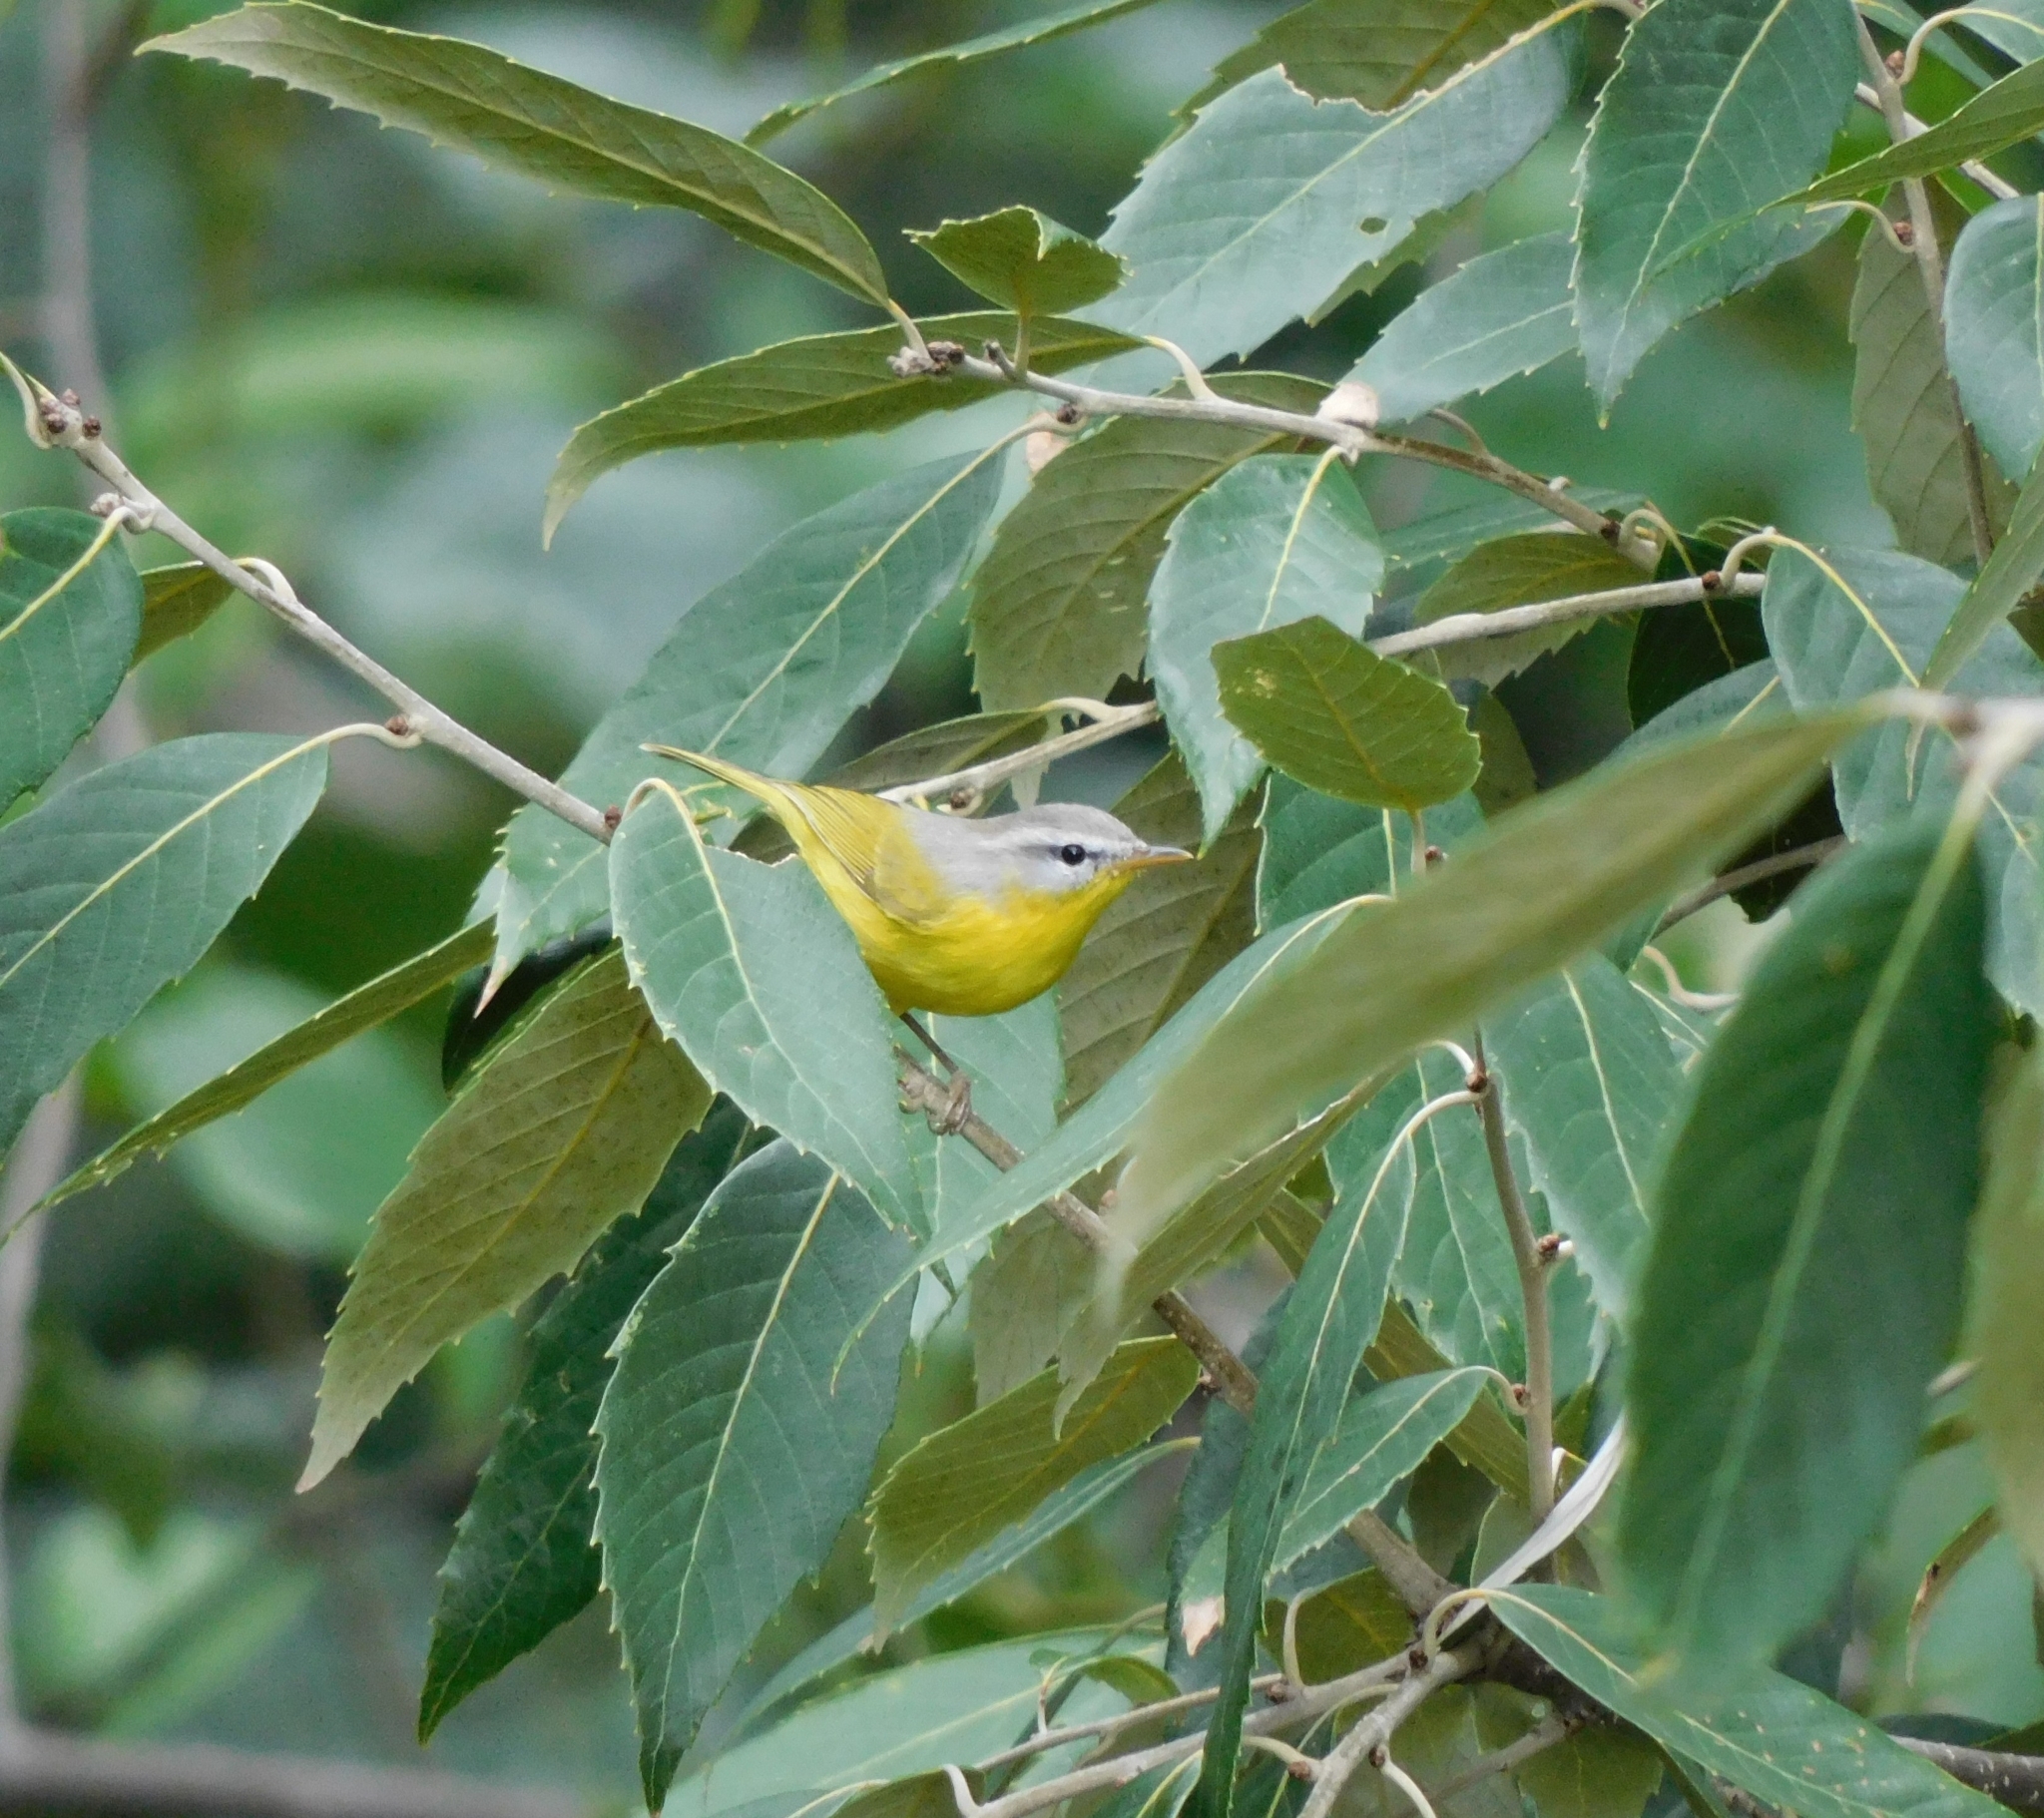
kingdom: Animalia
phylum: Chordata
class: Aves
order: Passeriformes
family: Phylloscopidae
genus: Phylloscopus
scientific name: Phylloscopus xanthoschistos
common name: Grey-hooded warbler
